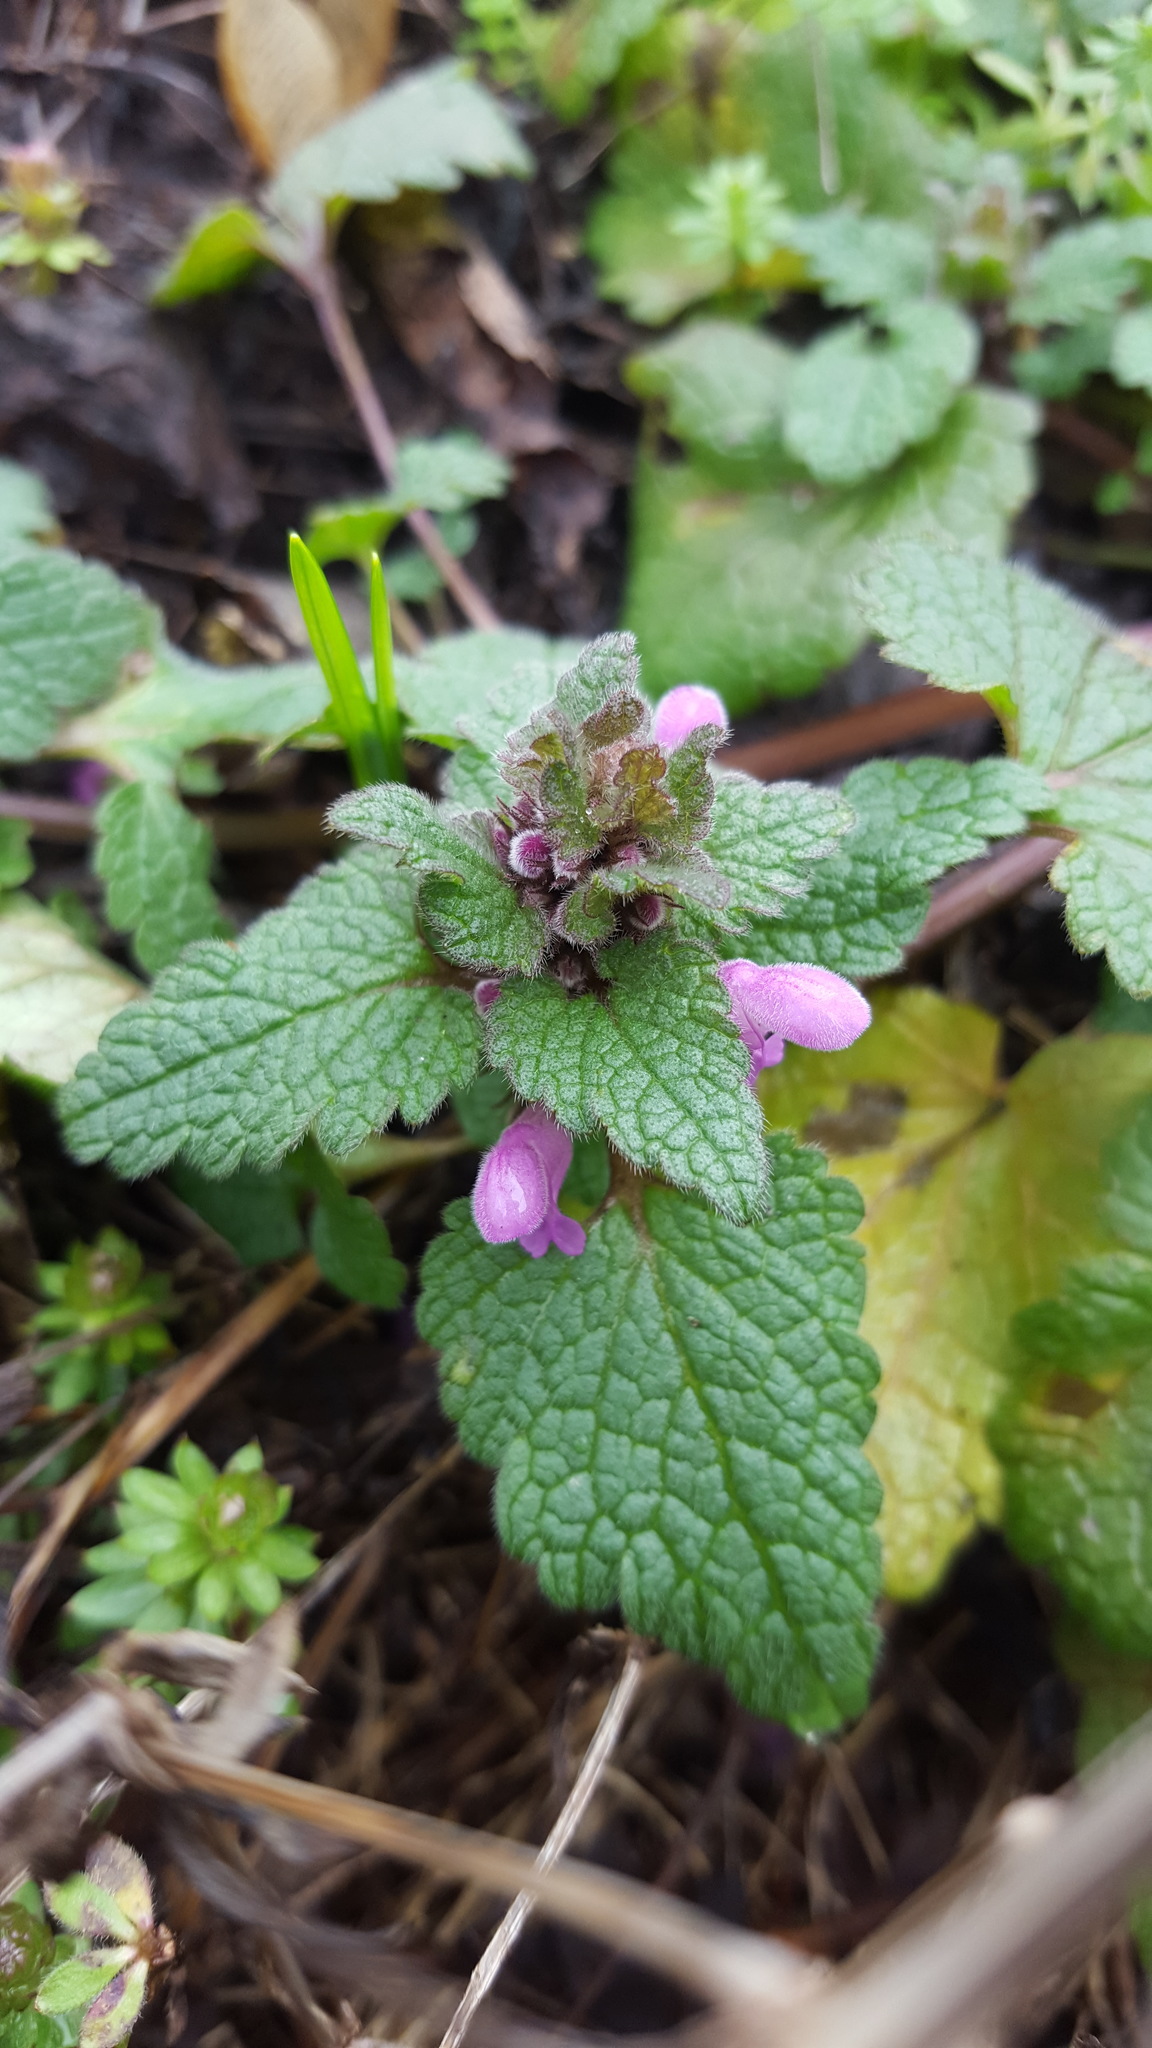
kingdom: Plantae
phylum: Tracheophyta
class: Magnoliopsida
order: Lamiales
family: Lamiaceae
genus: Lamium
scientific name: Lamium purpureum
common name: Red dead-nettle
